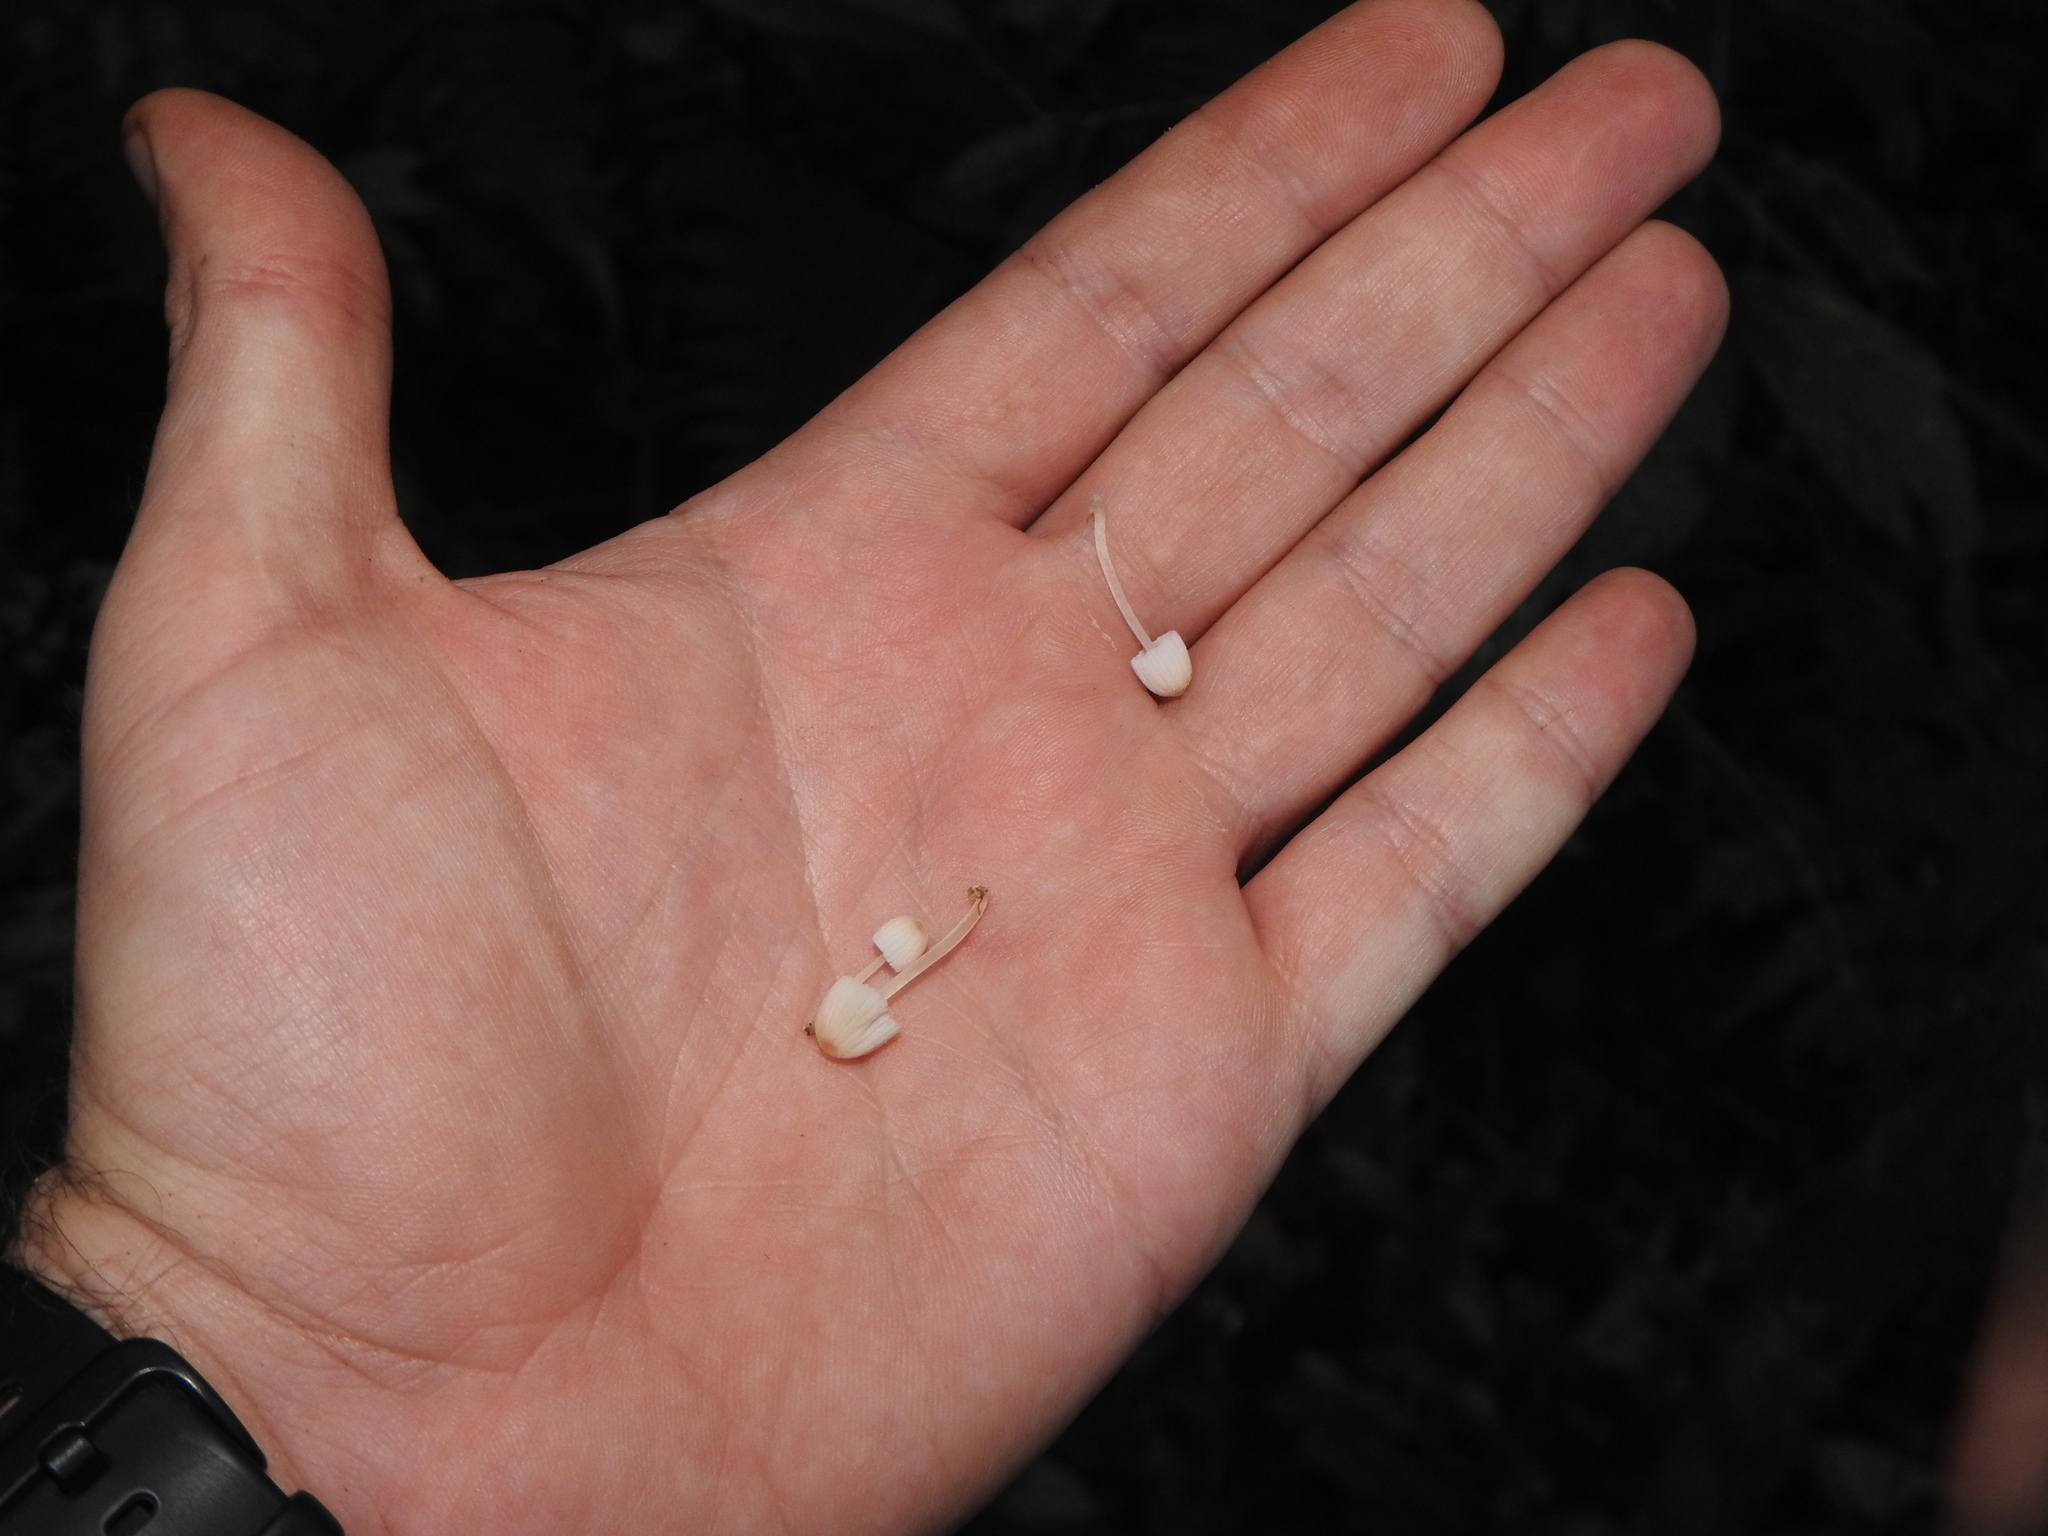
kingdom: Fungi
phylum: Basidiomycota
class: Agaricomycetes
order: Agaricales
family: Psathyrellaceae
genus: Coprinellus
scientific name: Coprinellus disseminatus
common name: Fairies' bonnets
